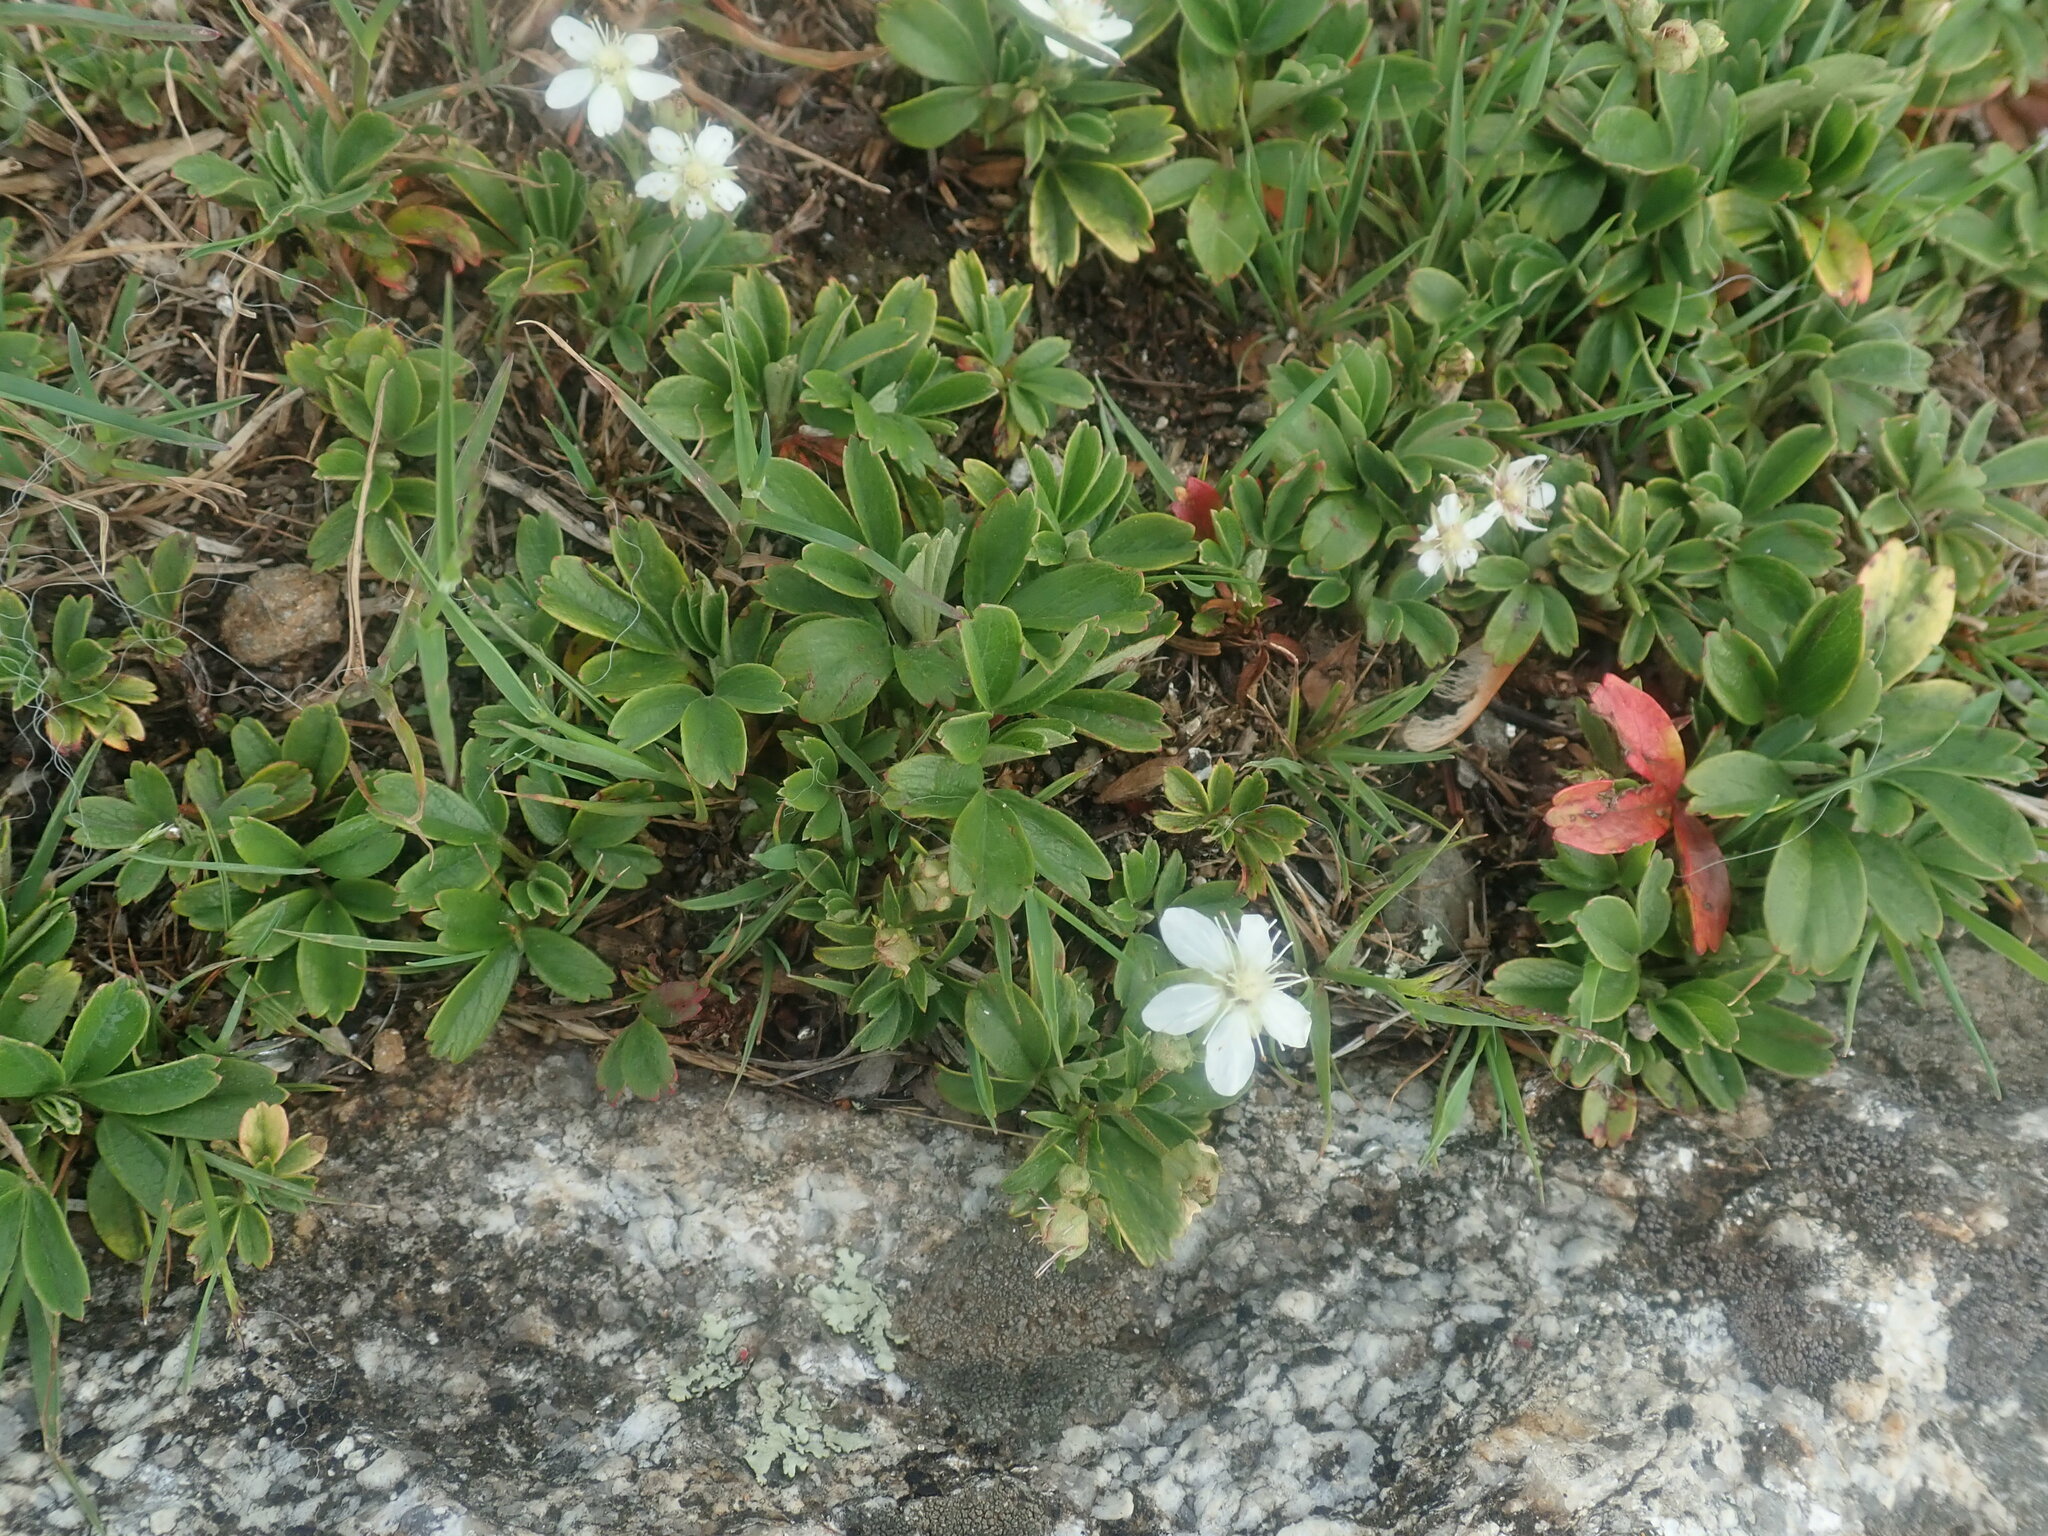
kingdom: Plantae
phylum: Tracheophyta
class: Magnoliopsida
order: Rosales
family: Rosaceae
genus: Sibbaldia
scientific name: Sibbaldia tridentata
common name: Three-toothed cinquefoil
